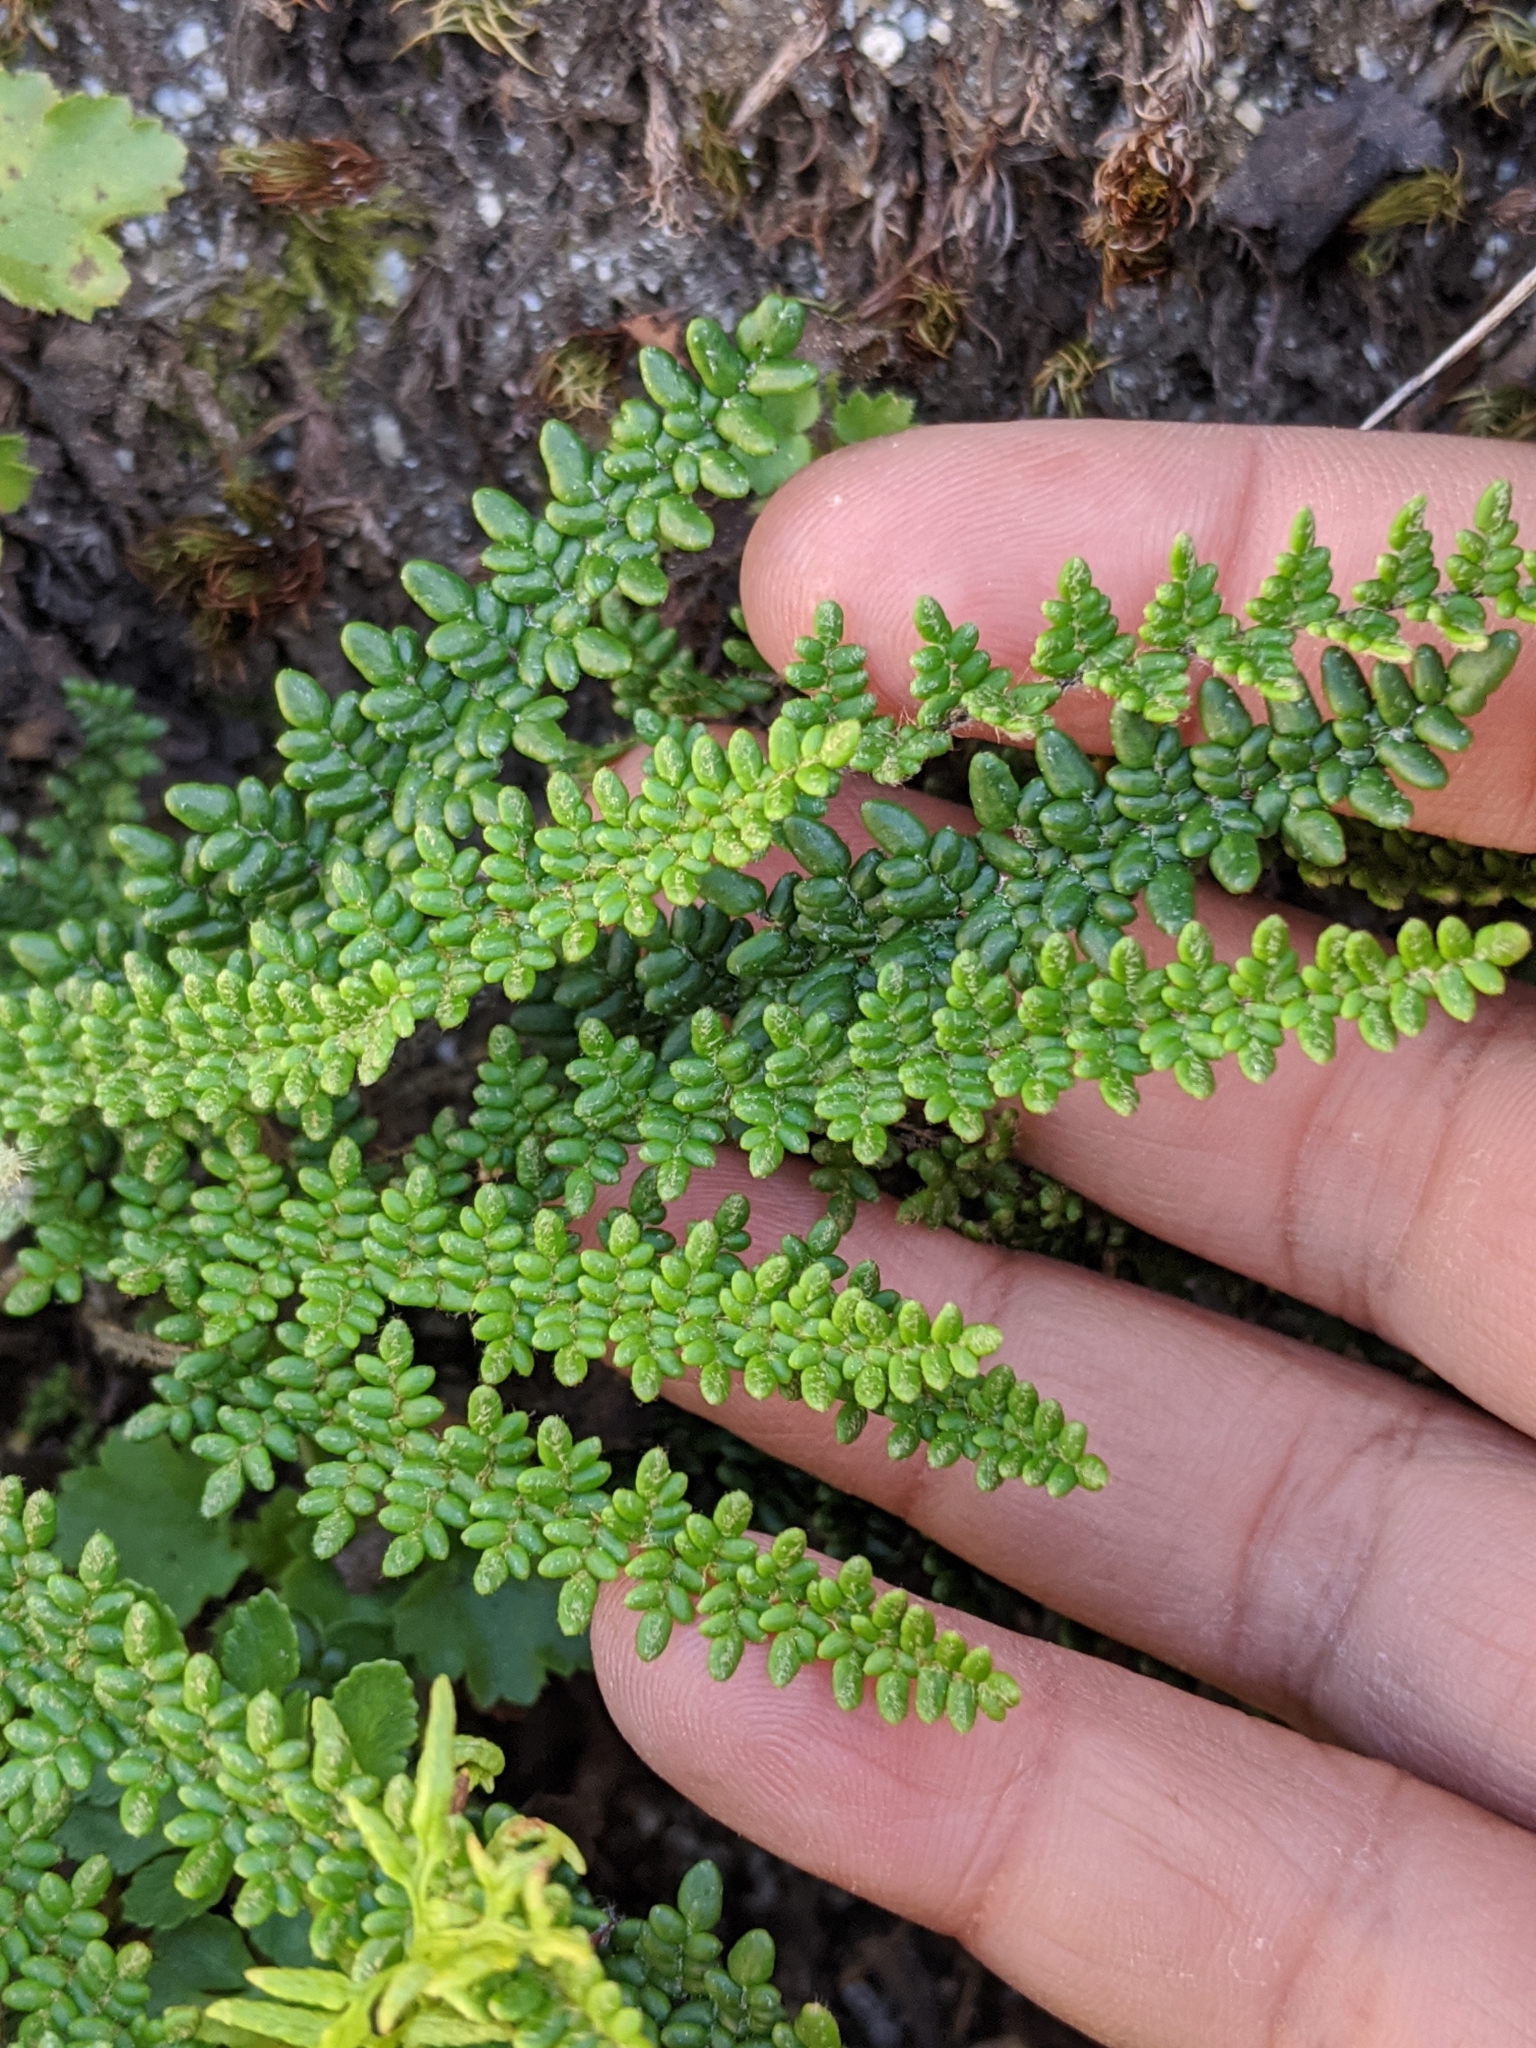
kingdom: Plantae
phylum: Tracheophyta
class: Polypodiopsida
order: Polypodiales
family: Pteridaceae
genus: Myriopteris
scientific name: Myriopteris gracillima
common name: Lace fern
